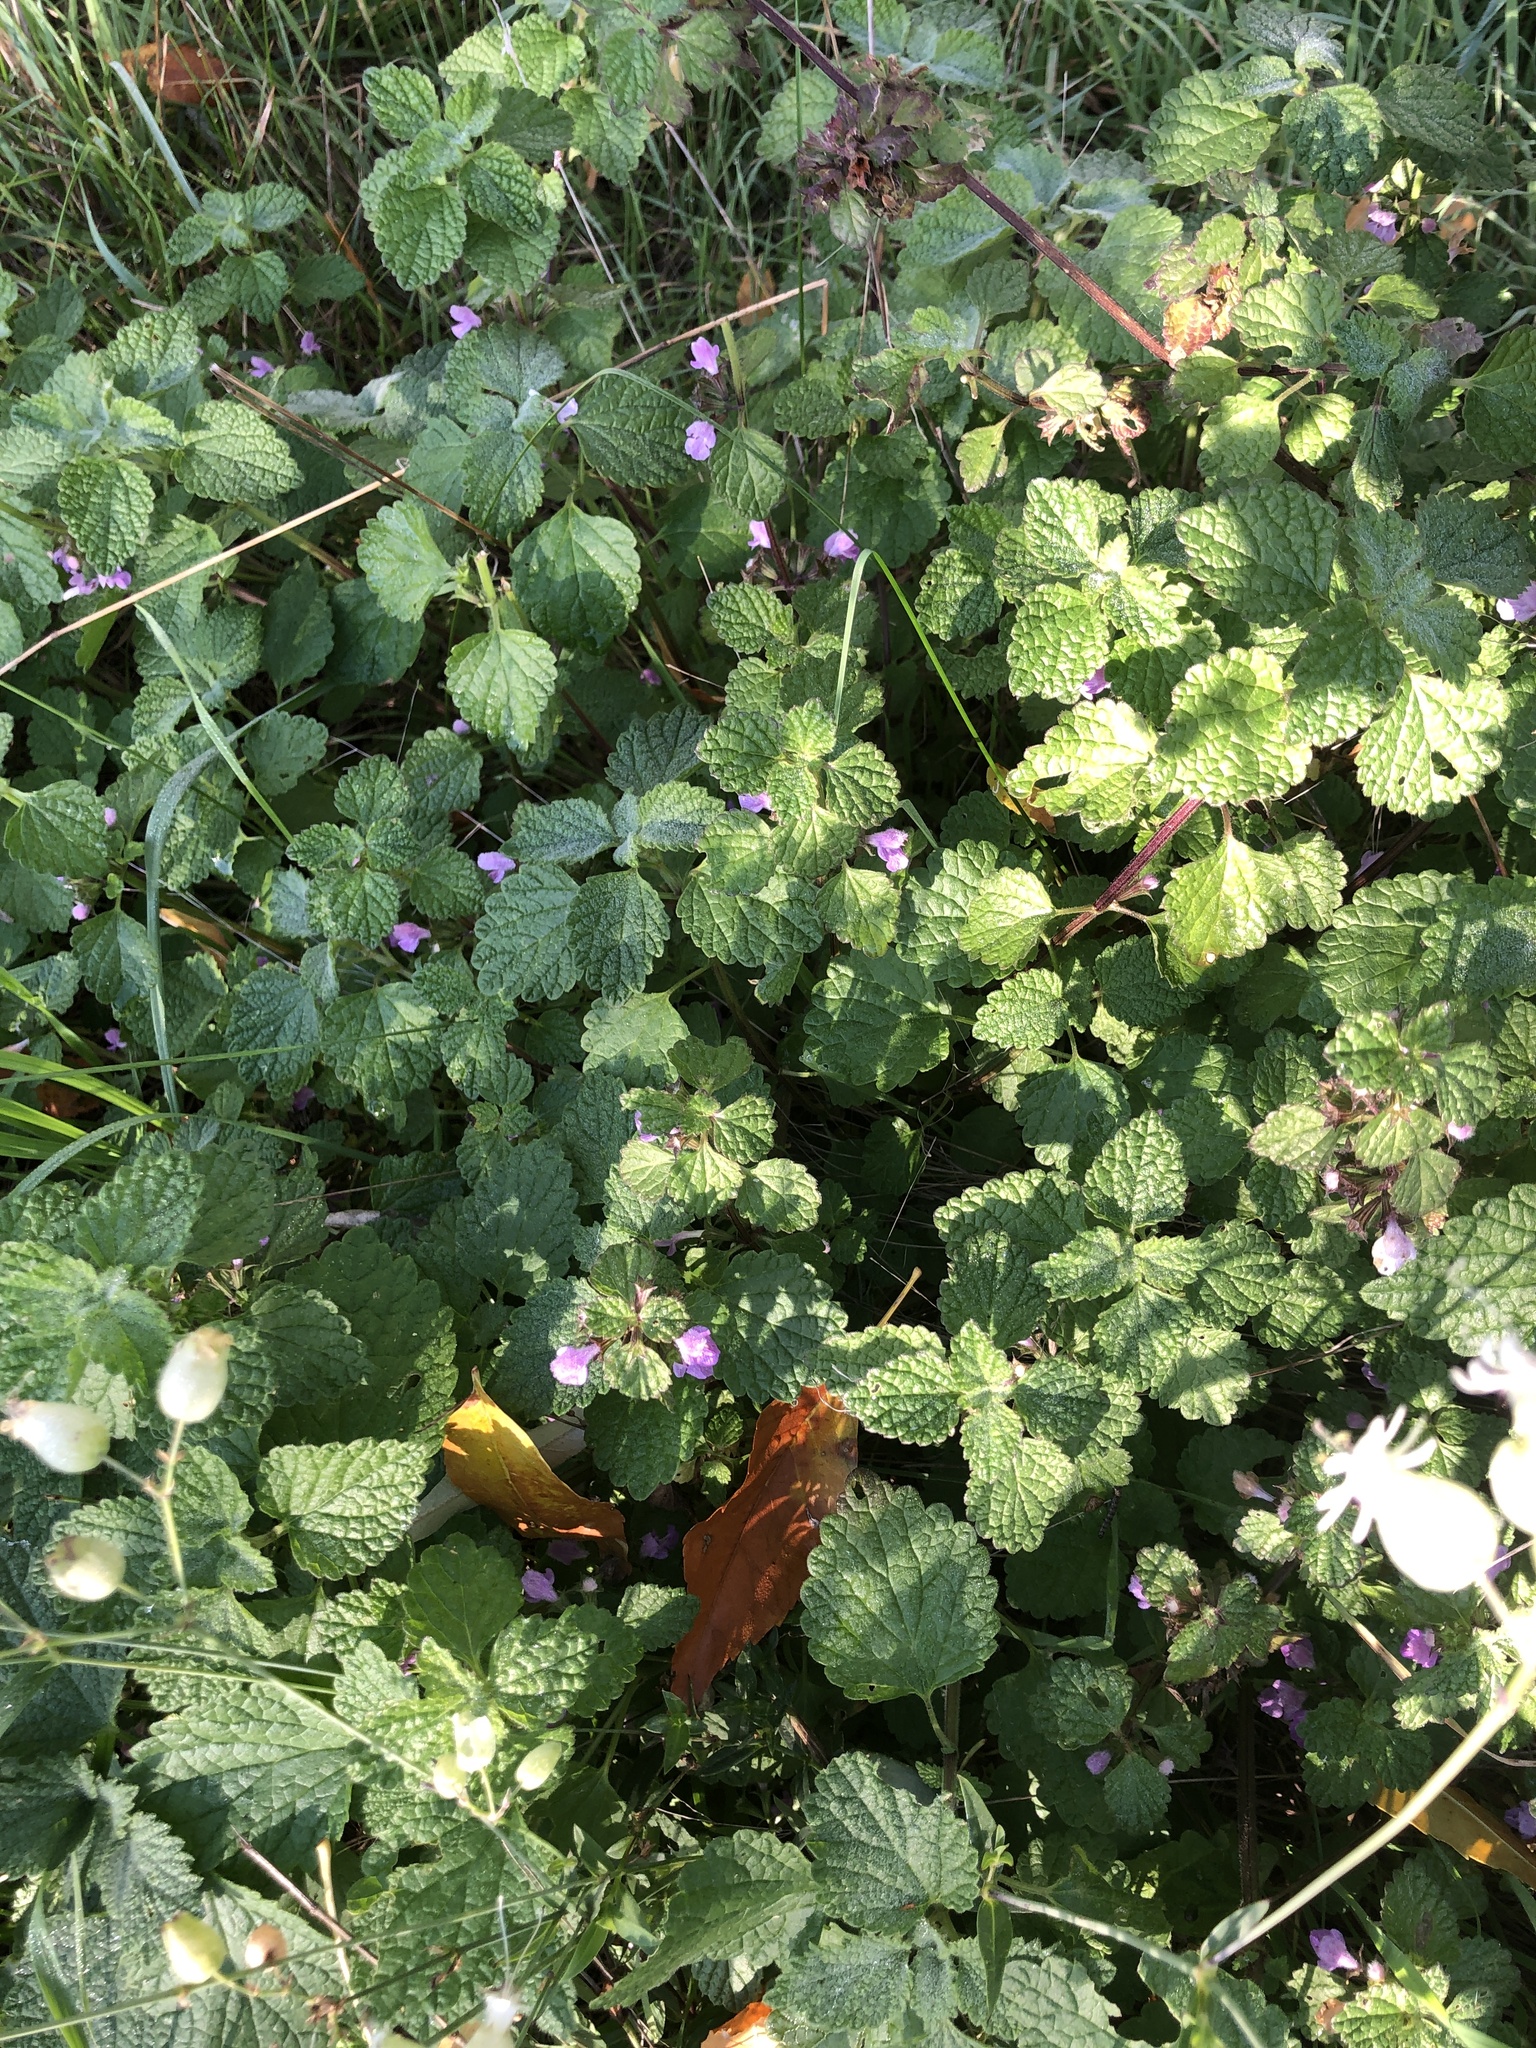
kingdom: Plantae
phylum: Tracheophyta
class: Magnoliopsida
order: Lamiales
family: Lamiaceae
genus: Ballota
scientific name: Ballota nigra
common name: Black horehound
